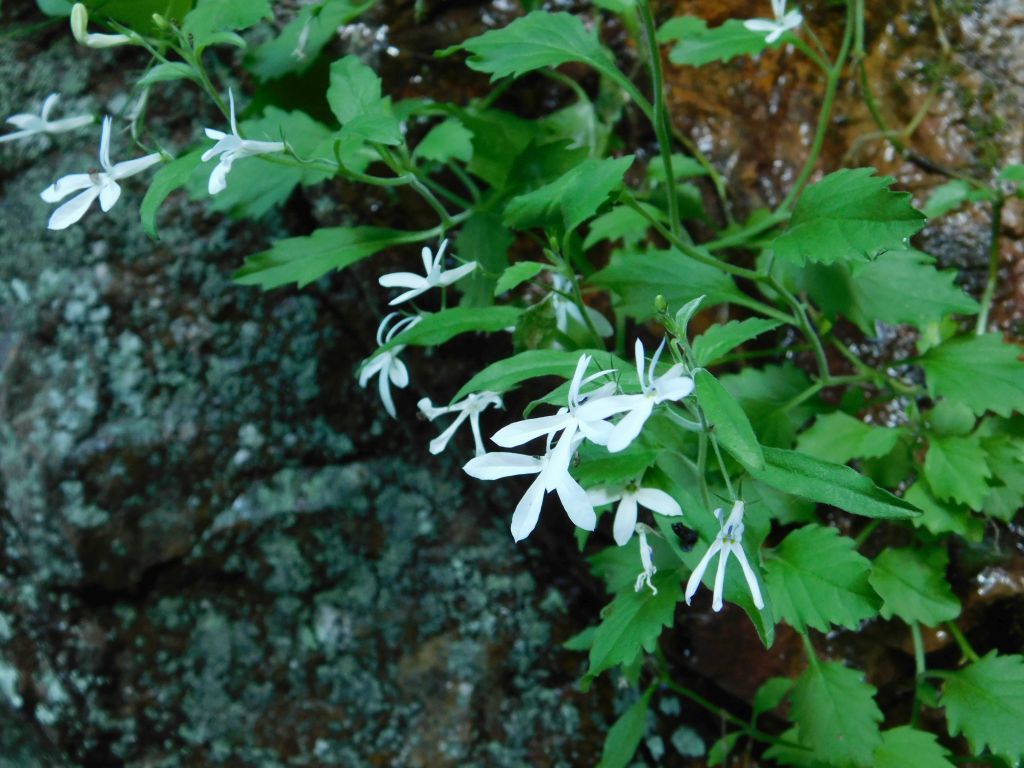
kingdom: Plantae
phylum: Tracheophyta
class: Magnoliopsida
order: Asterales
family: Campanulaceae
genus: Lobelia
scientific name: Lobelia pubescens
